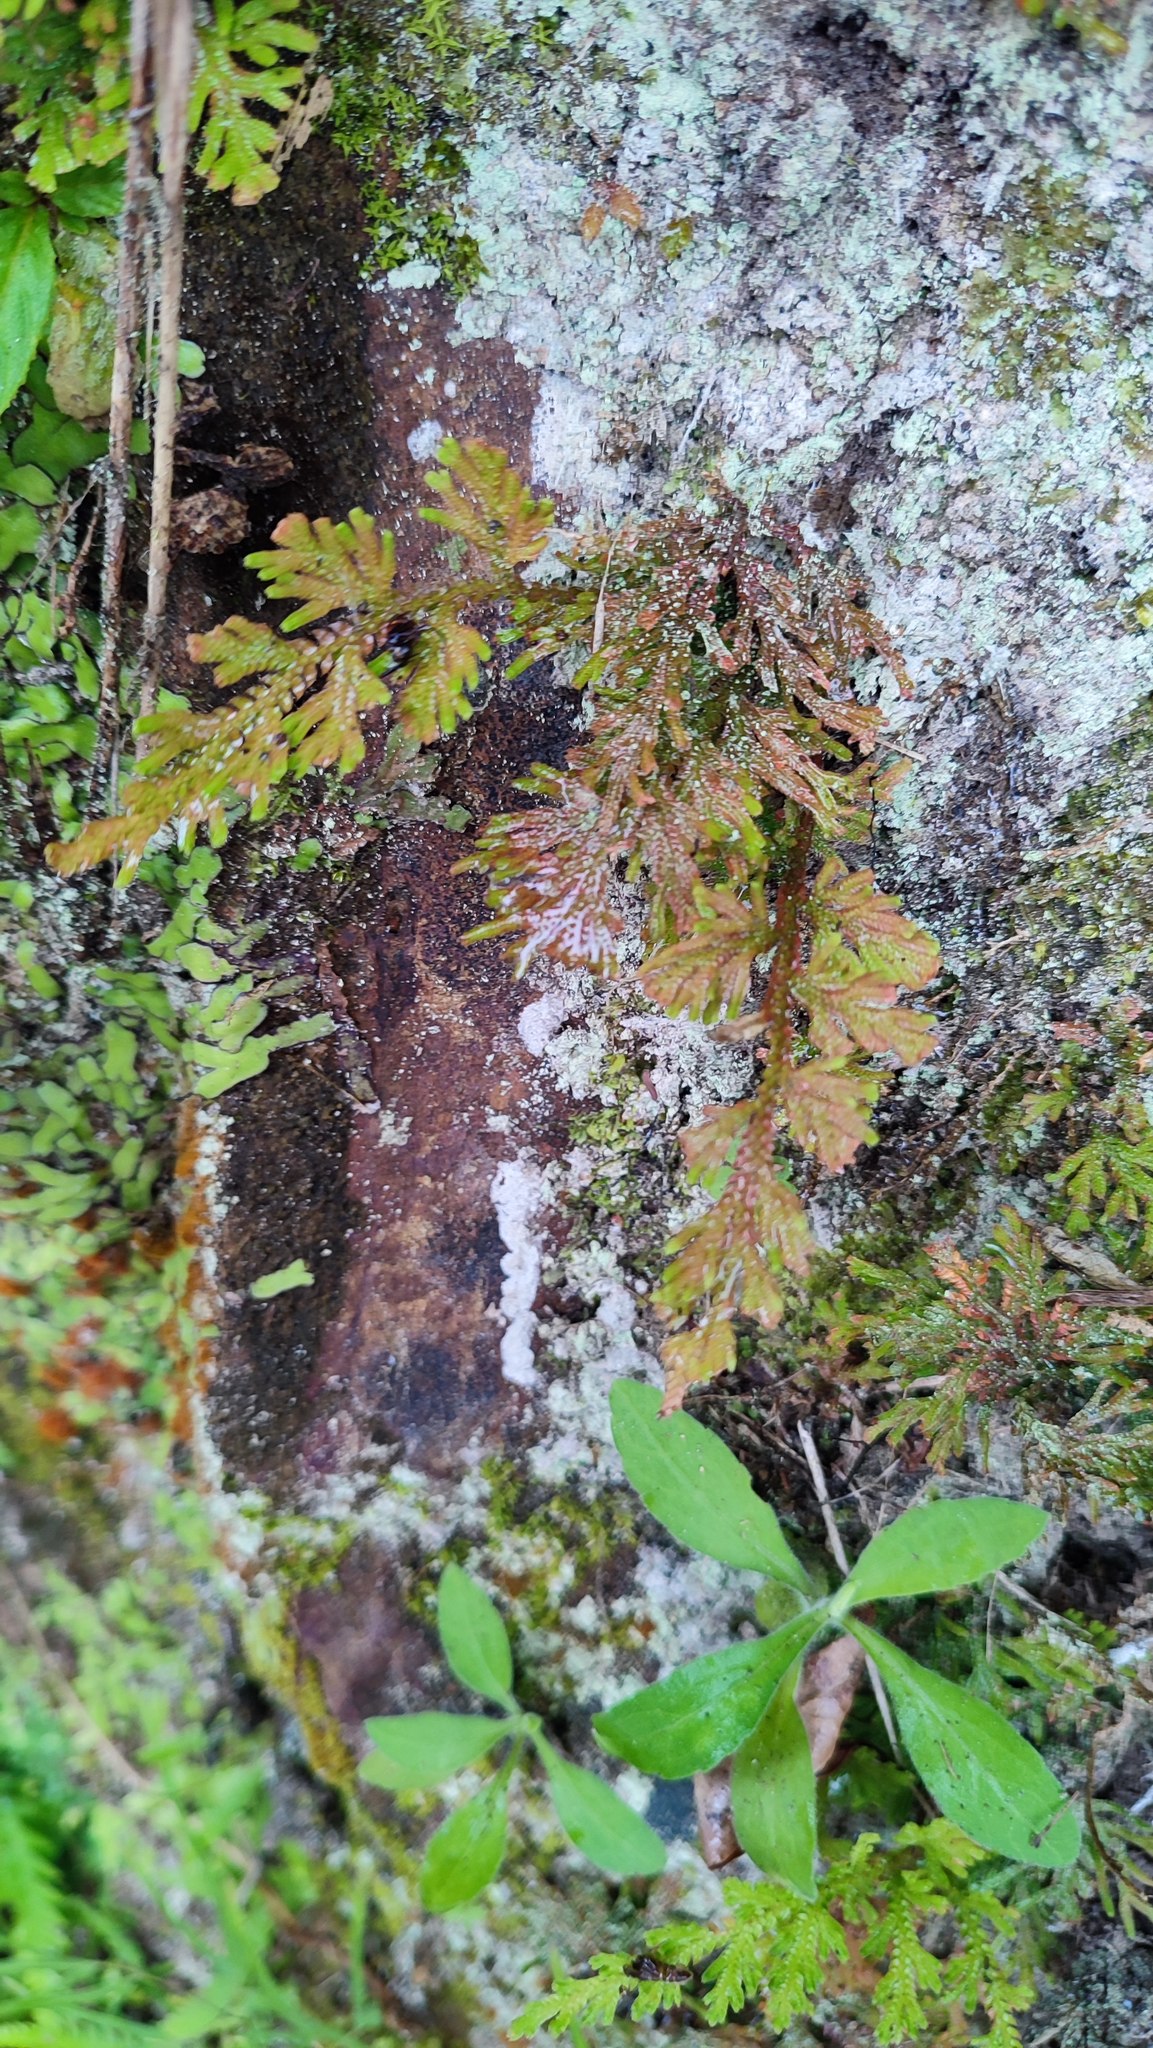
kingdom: Plantae
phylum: Tracheophyta
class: Lycopodiopsida
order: Selaginellales
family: Selaginellaceae
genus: Selaginella
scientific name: Selaginella moellendorffii
